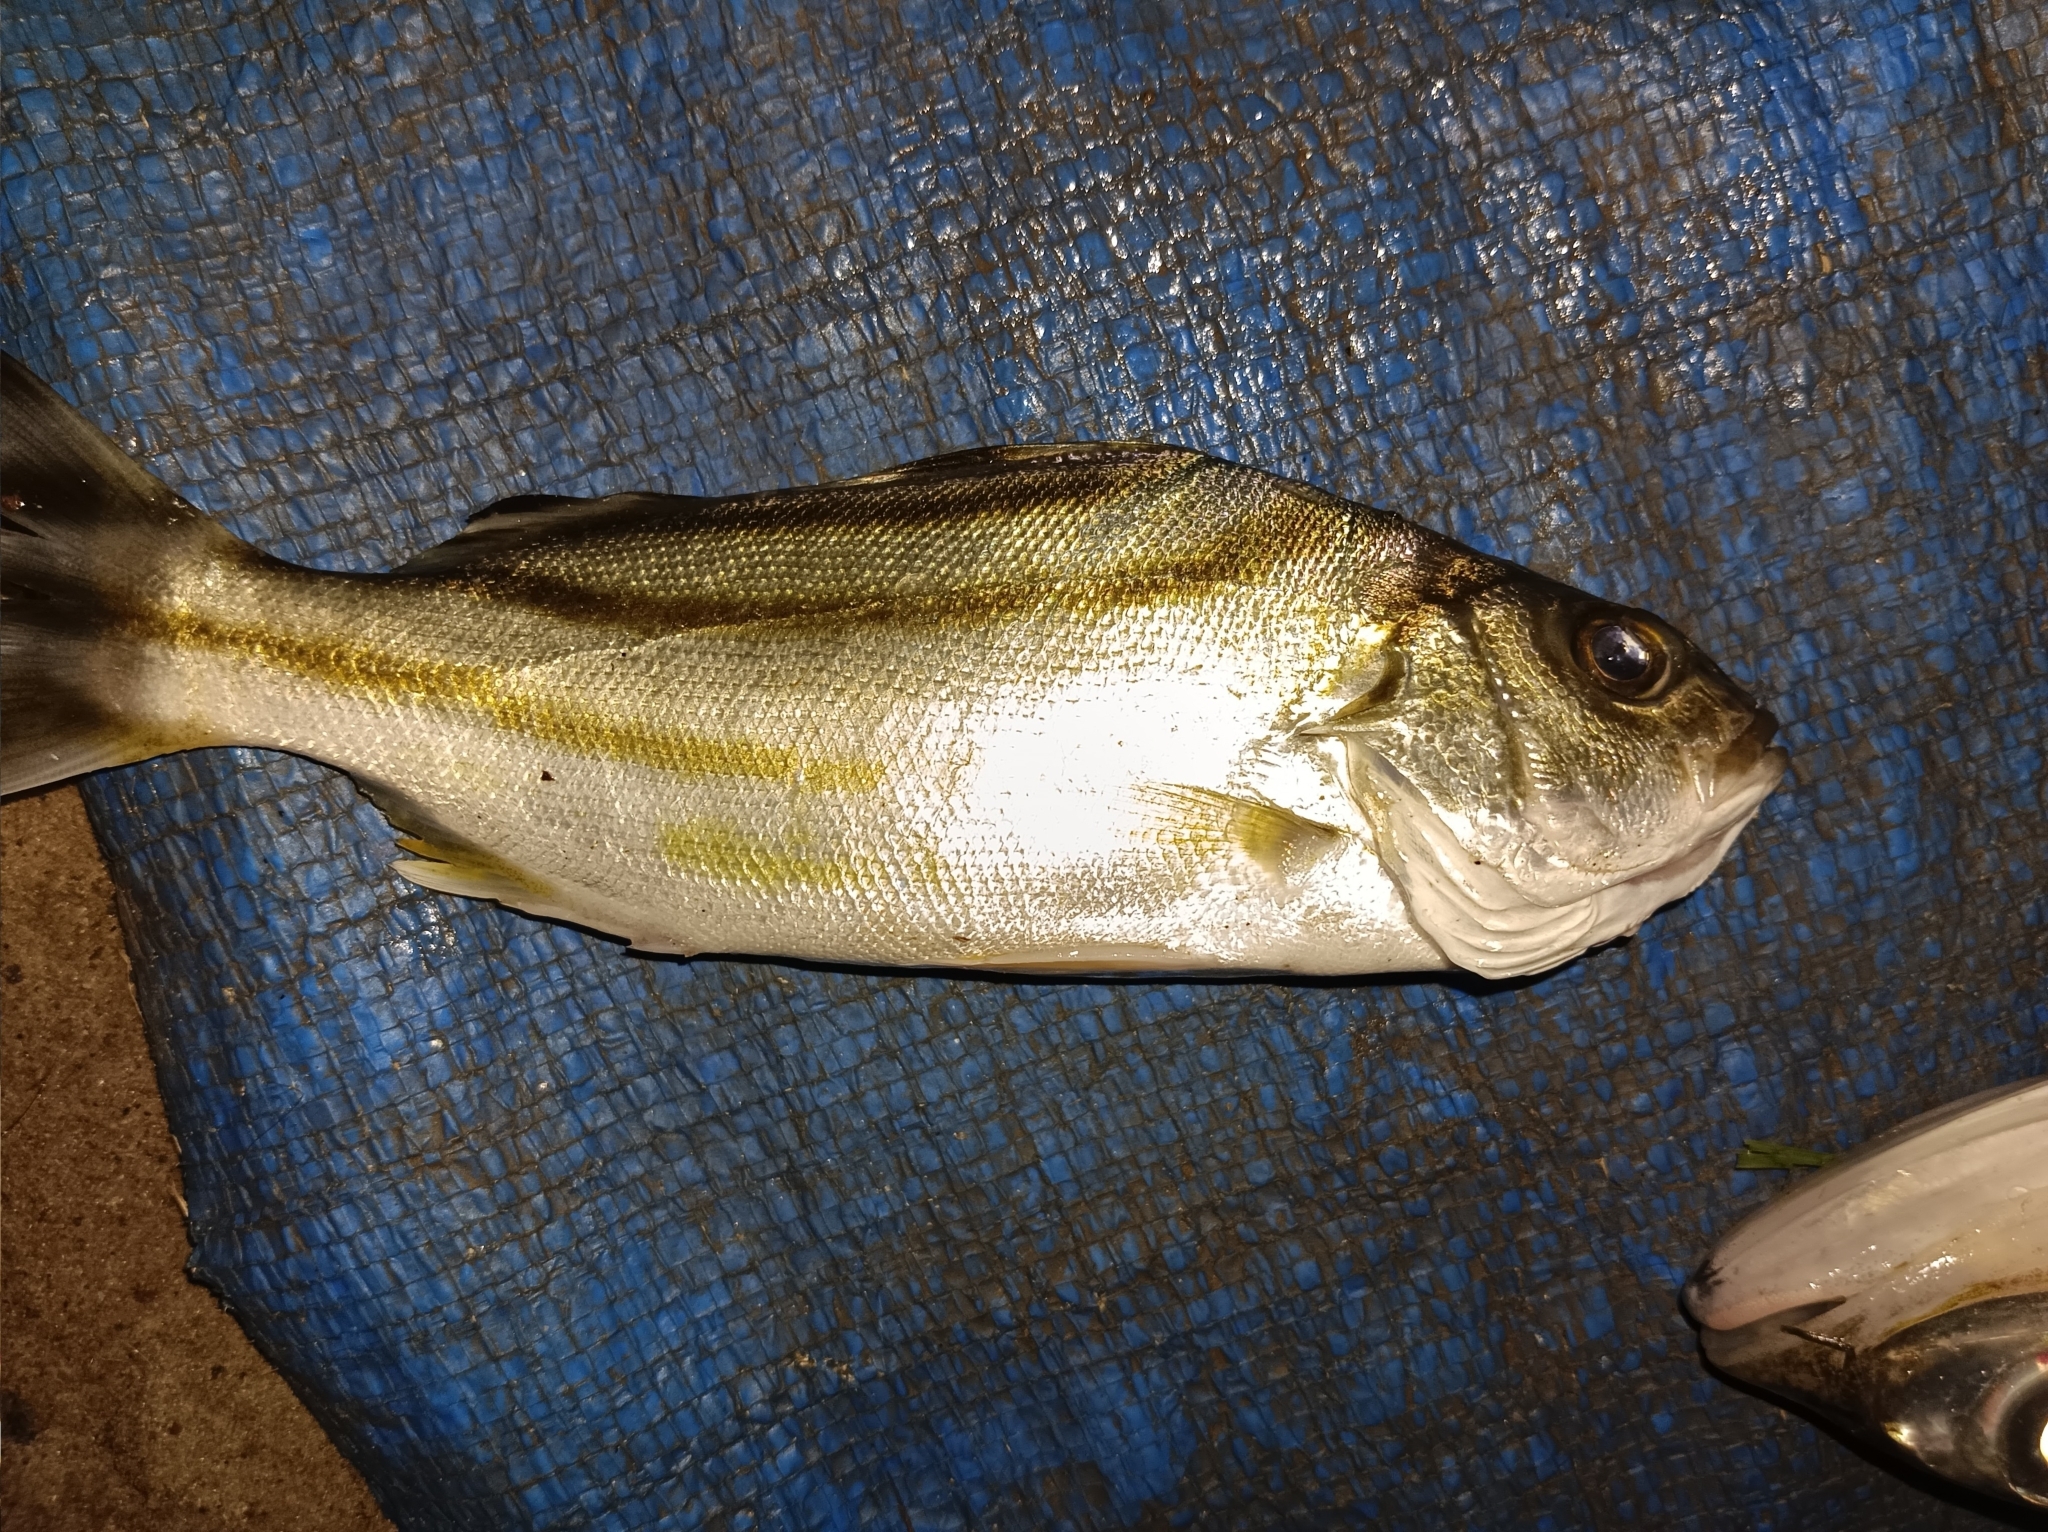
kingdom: Animalia
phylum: Chordata
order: Perciformes
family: Terapontidae
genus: Terapon
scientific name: Terapon jarbua
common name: Jarbua terapon
